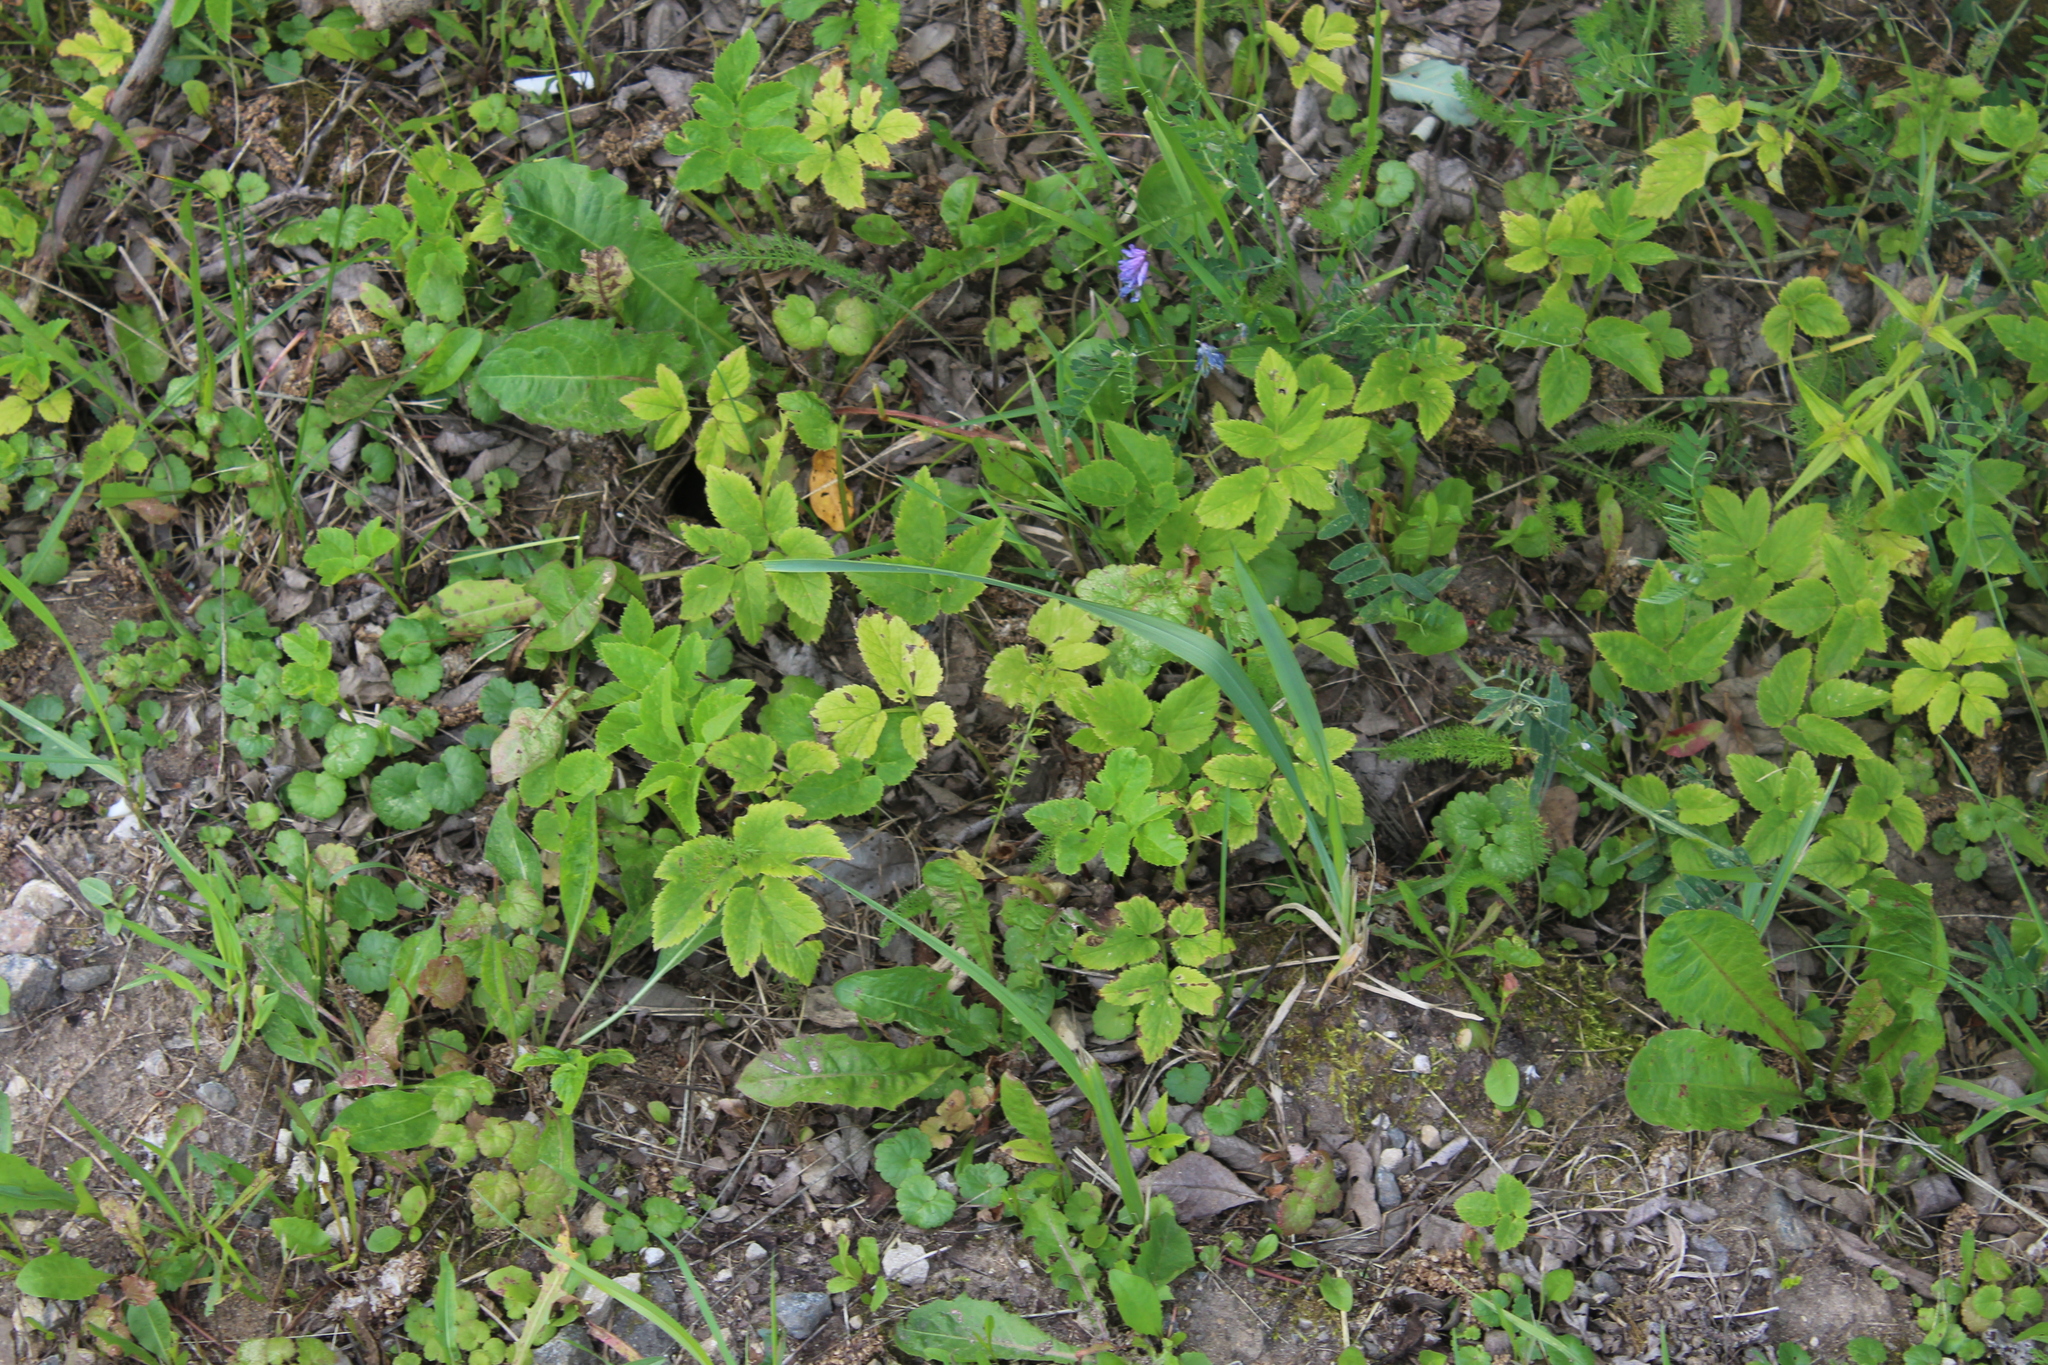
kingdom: Plantae
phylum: Tracheophyta
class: Magnoliopsida
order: Apiales
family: Apiaceae
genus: Aegopodium
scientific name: Aegopodium podagraria
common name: Ground-elder
